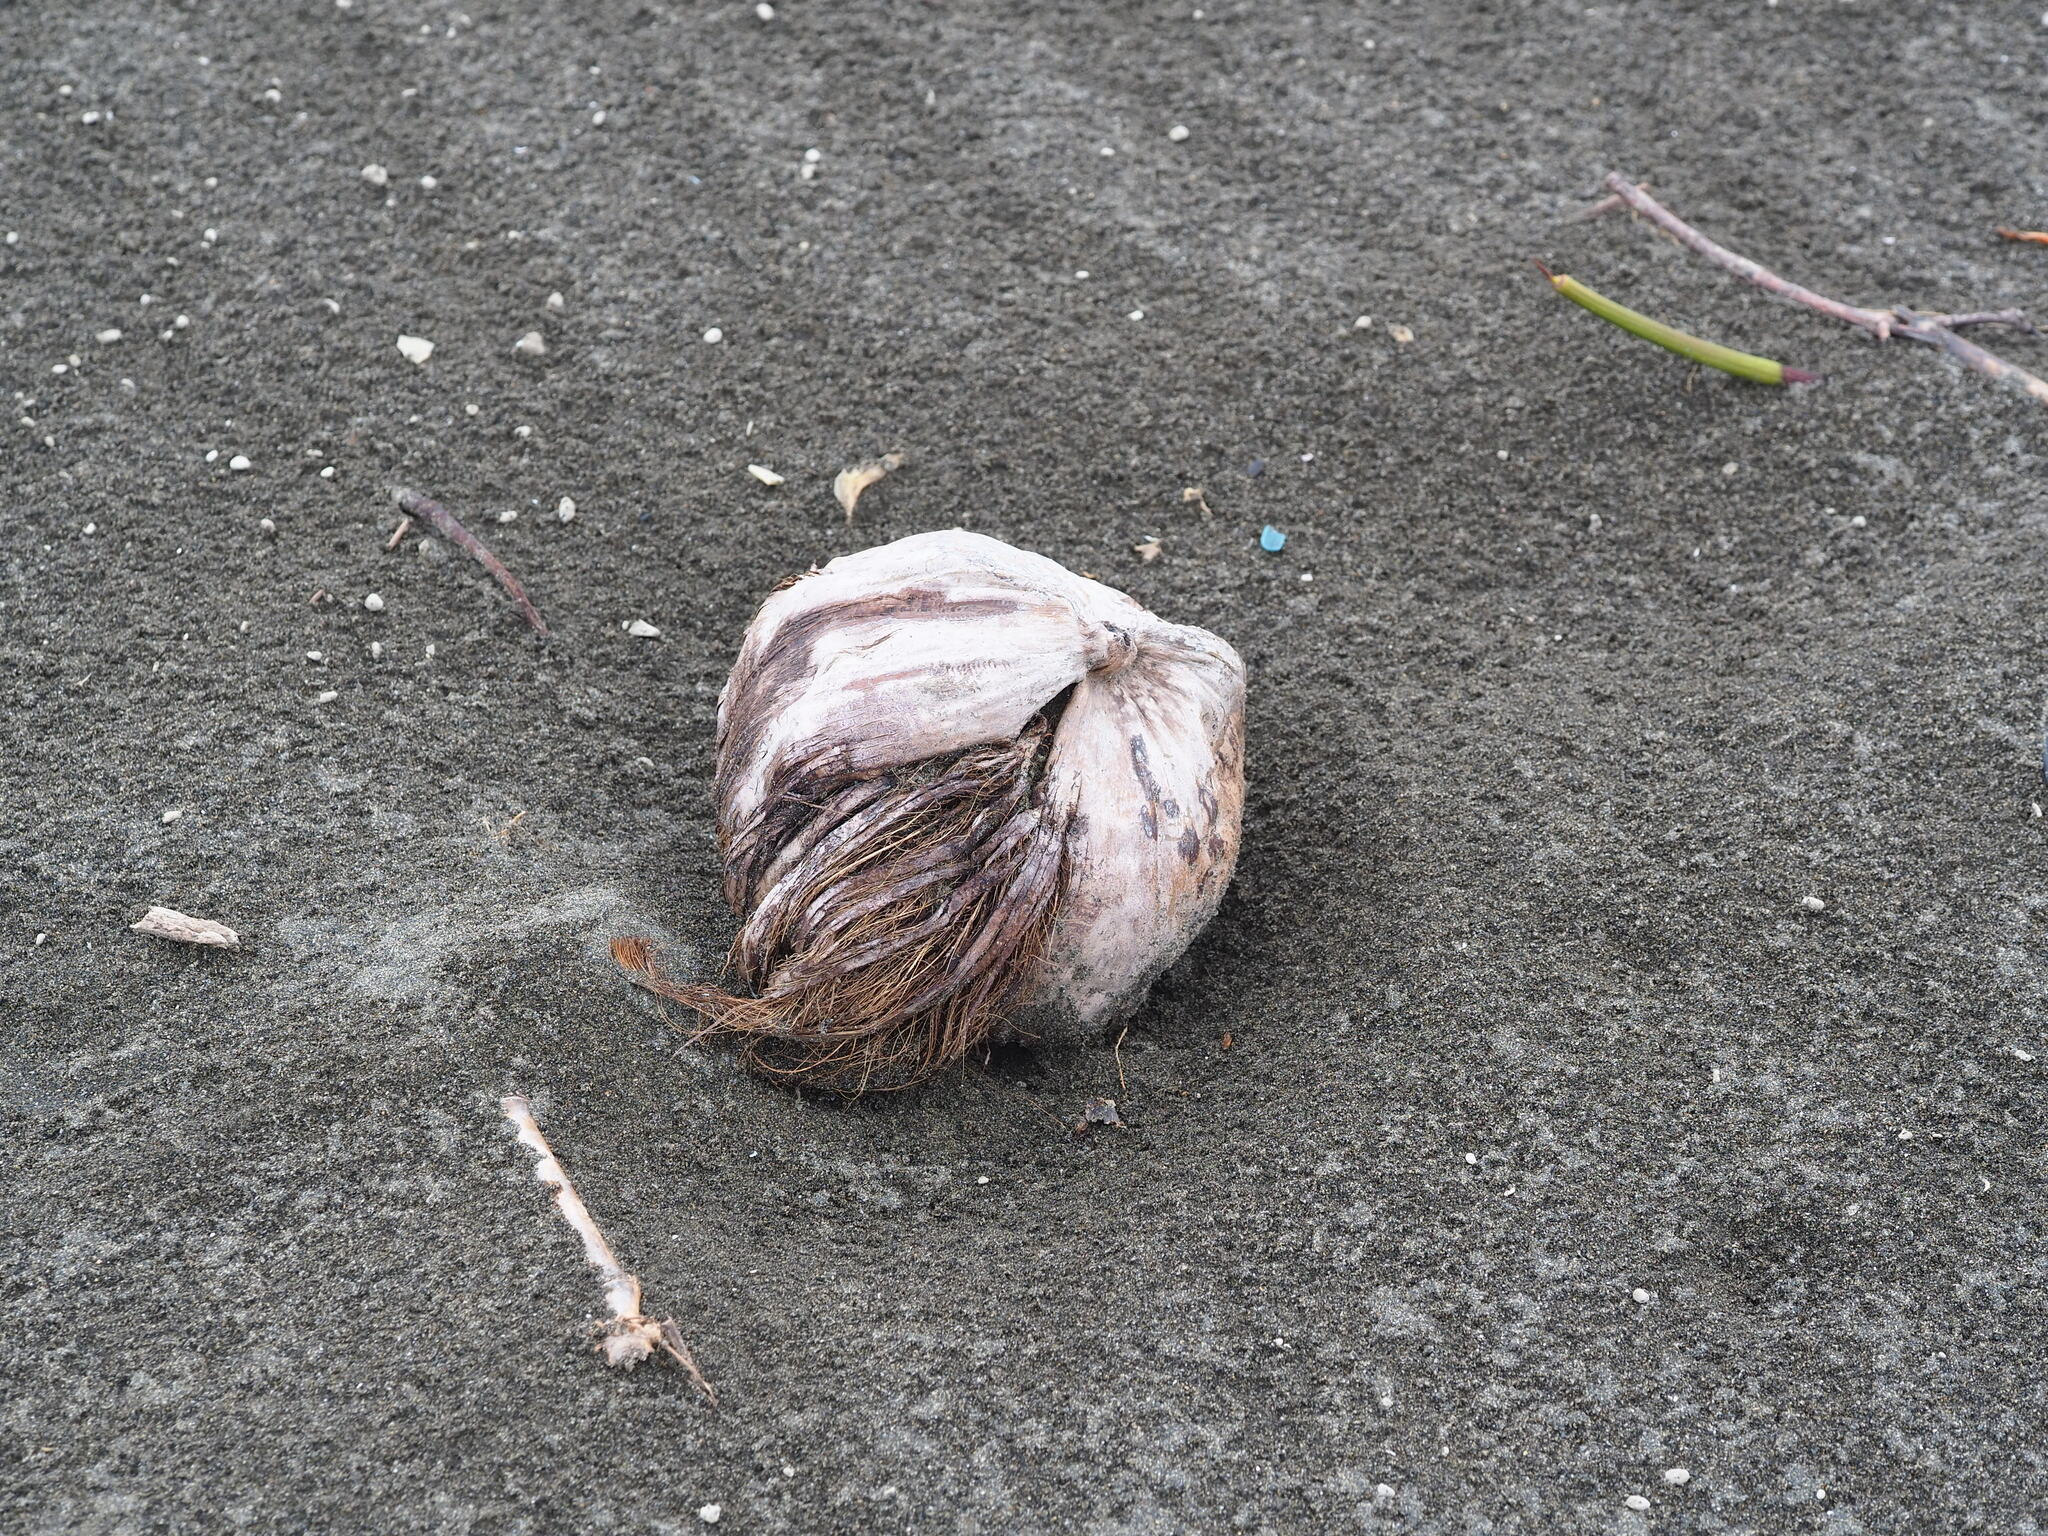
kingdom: Plantae
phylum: Tracheophyta
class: Liliopsida
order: Arecales
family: Arecaceae
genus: Cocos
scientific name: Cocos nucifera
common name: Coconut palm
